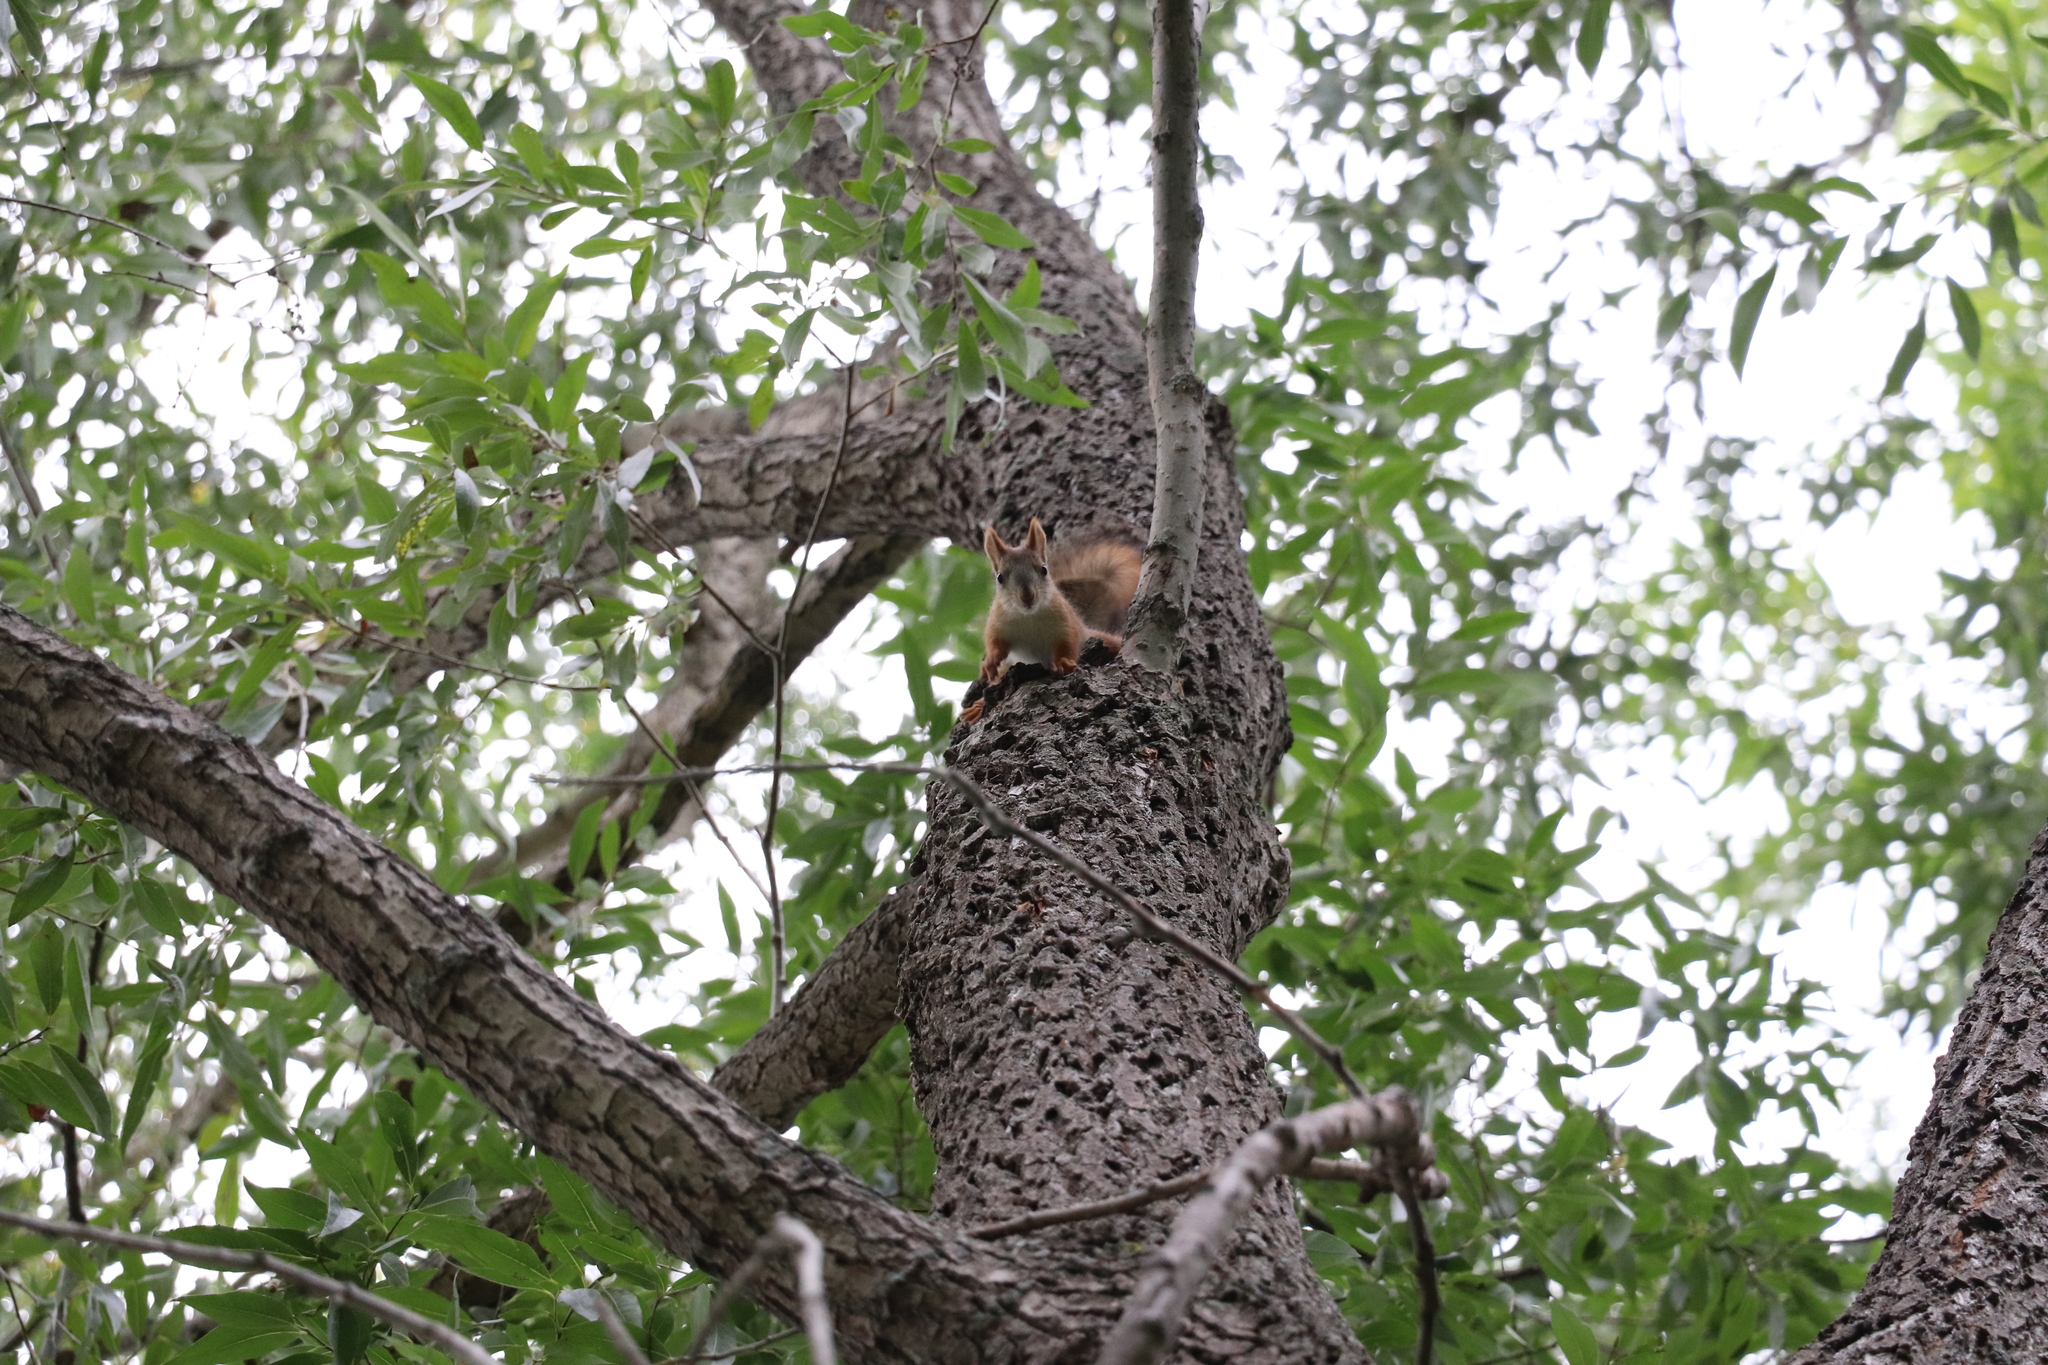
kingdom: Animalia
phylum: Chordata
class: Mammalia
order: Rodentia
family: Sciuridae
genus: Sciurus
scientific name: Sciurus vulgaris
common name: Eurasian red squirrel
